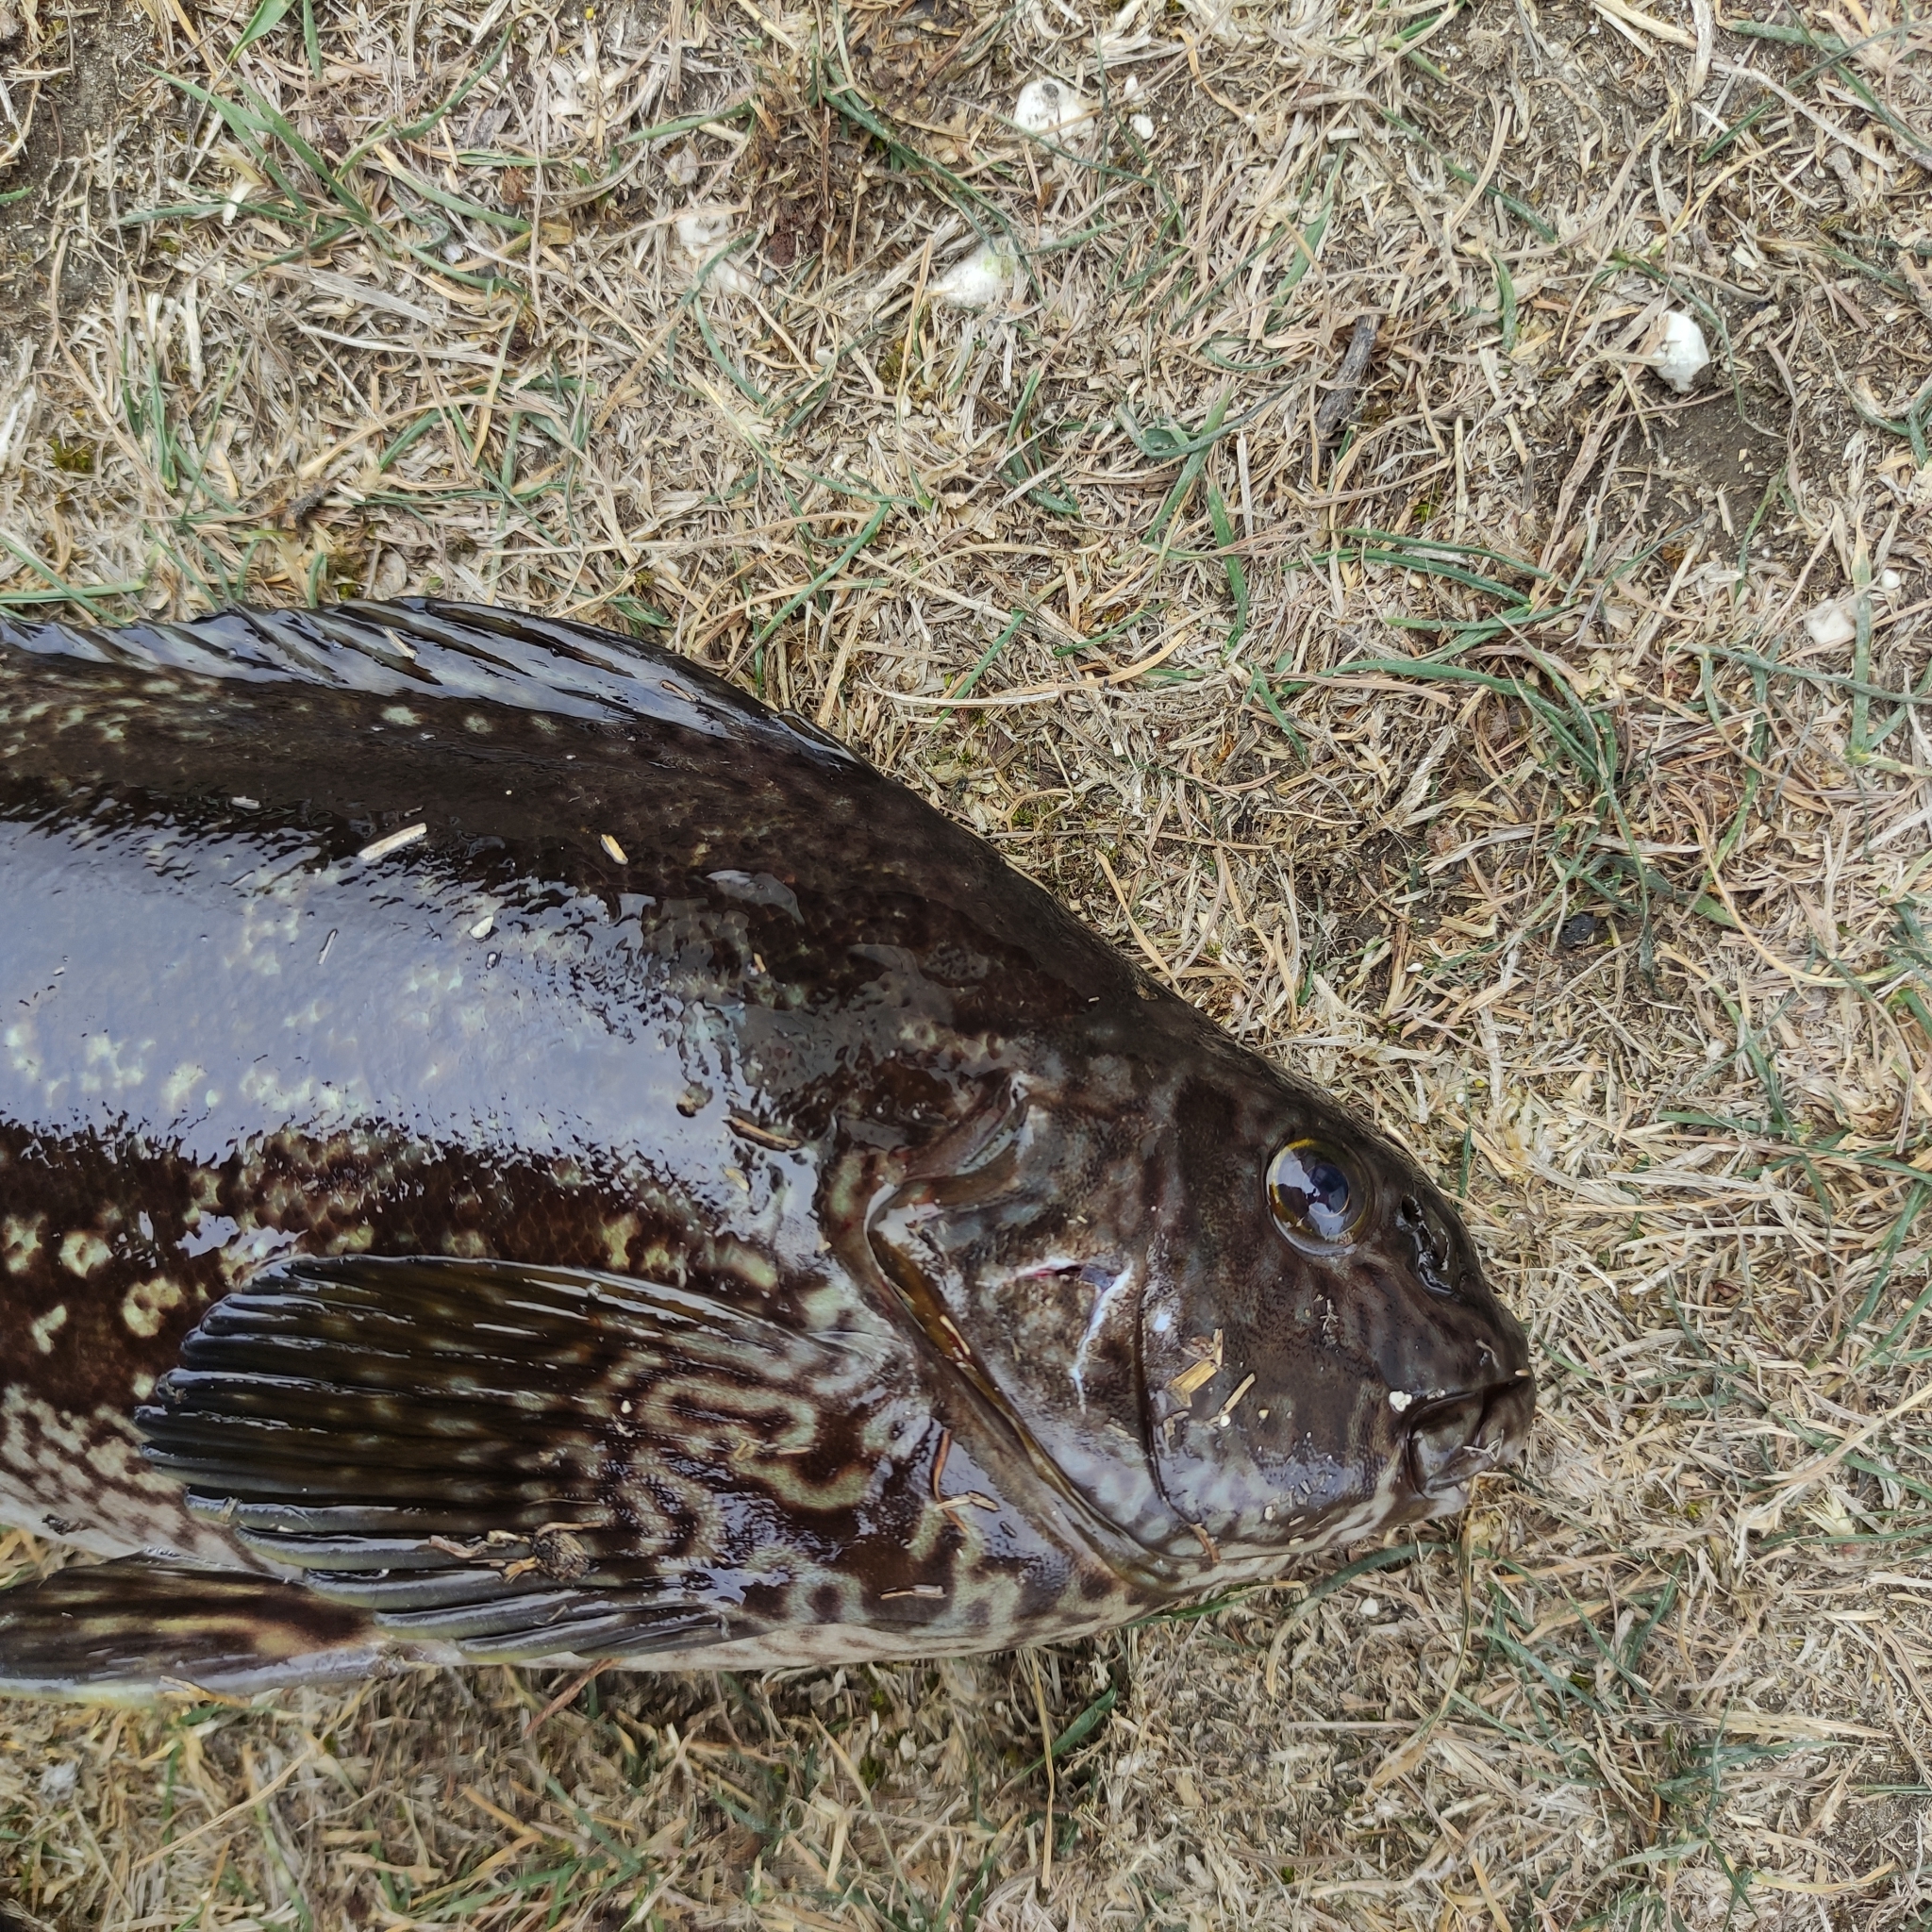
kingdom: Animalia
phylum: Chordata
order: Perciformes
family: Aplodactylidae
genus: Aplodactylus
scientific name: Aplodactylus arctidens
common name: Marblefish
